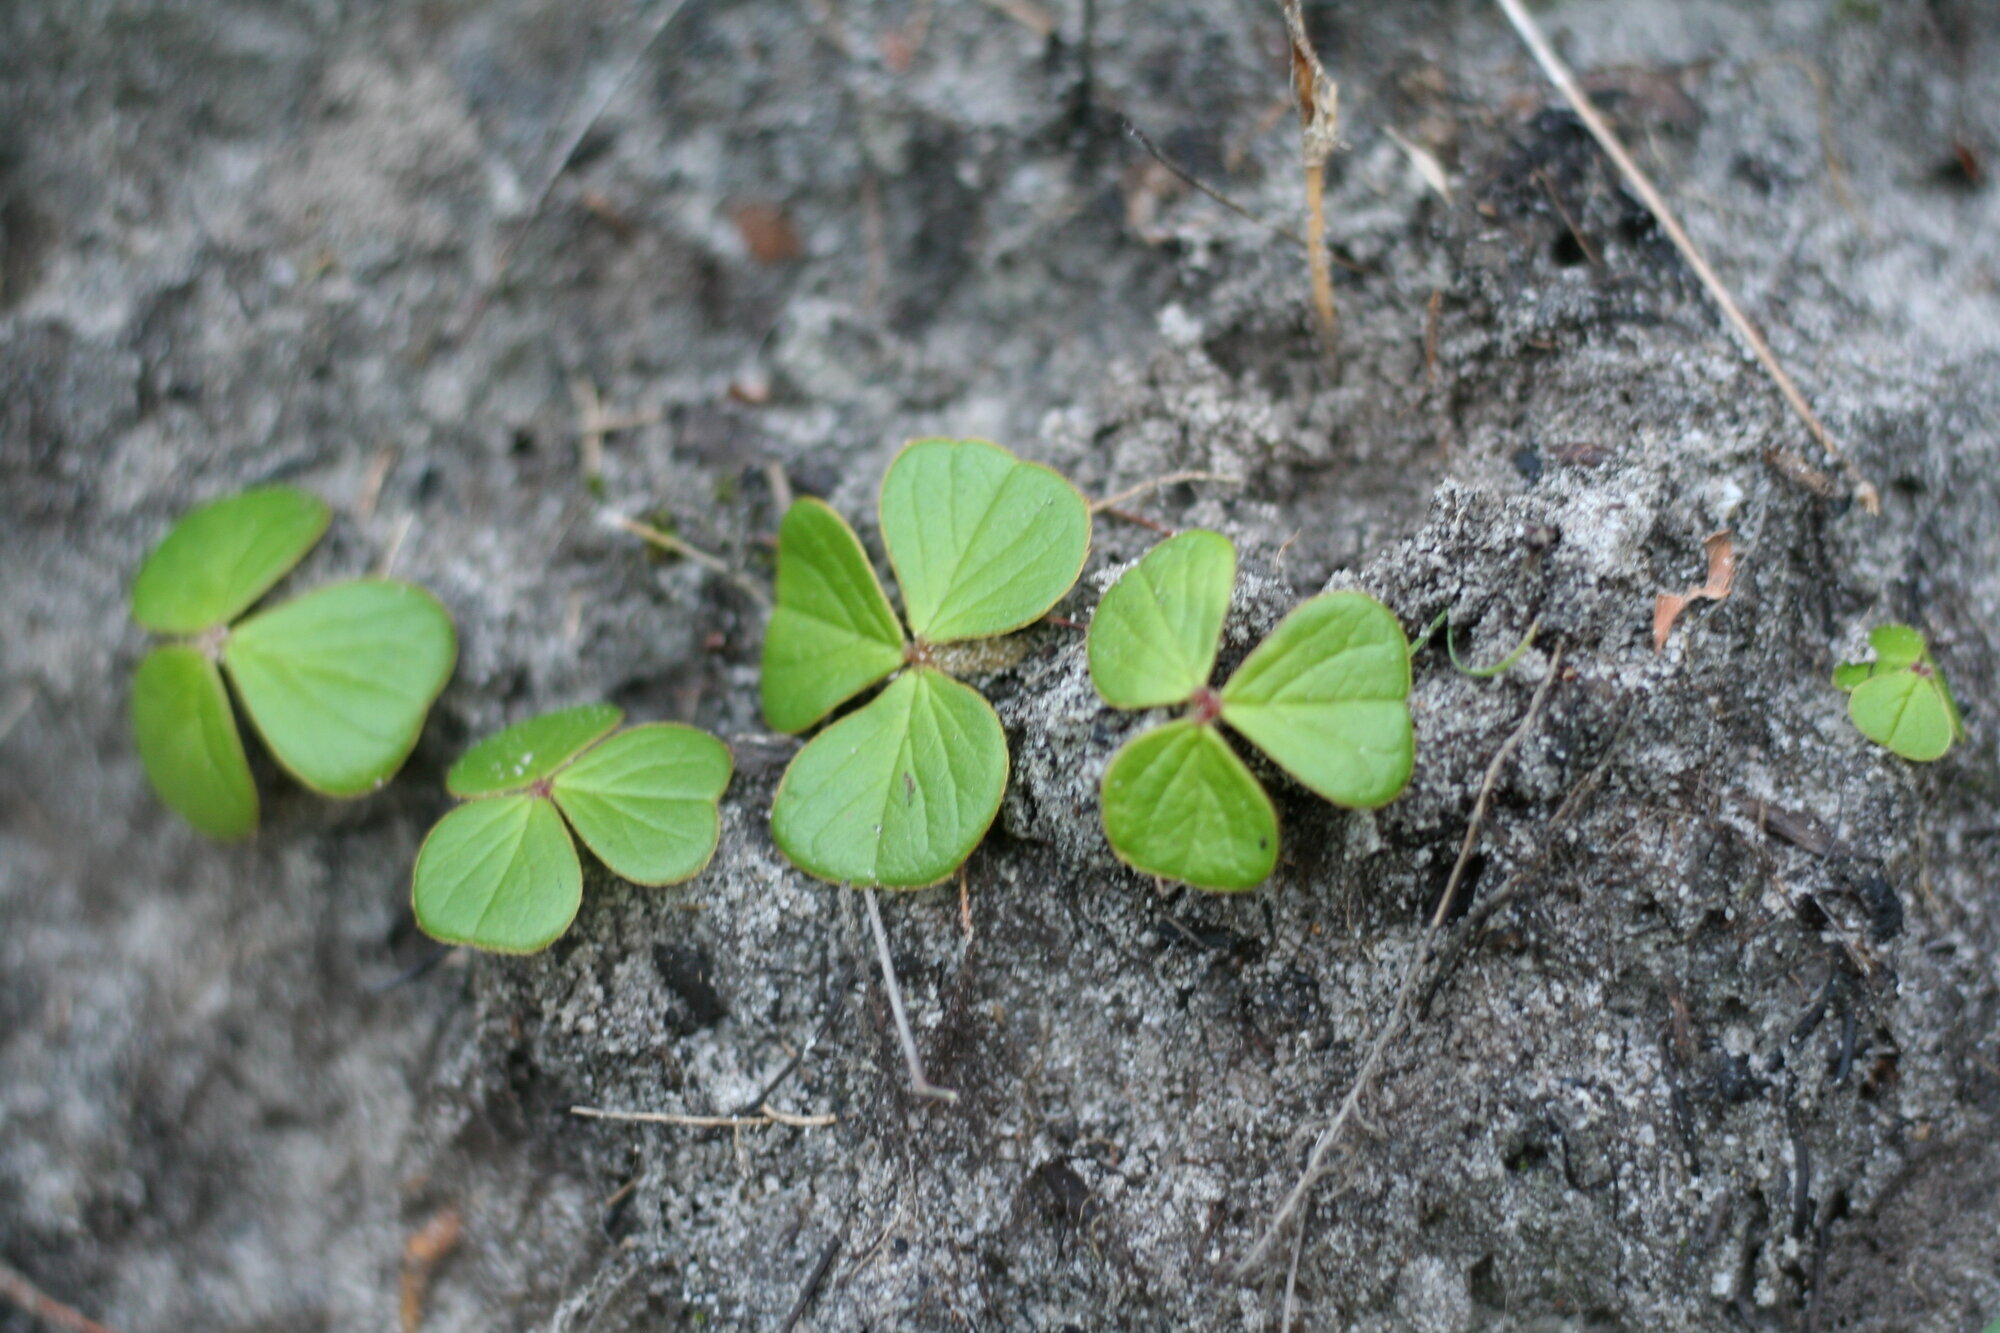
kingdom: Plantae
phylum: Tracheophyta
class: Magnoliopsida
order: Oxalidales
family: Oxalidaceae
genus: Oxalis
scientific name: Oxalis truncatula
